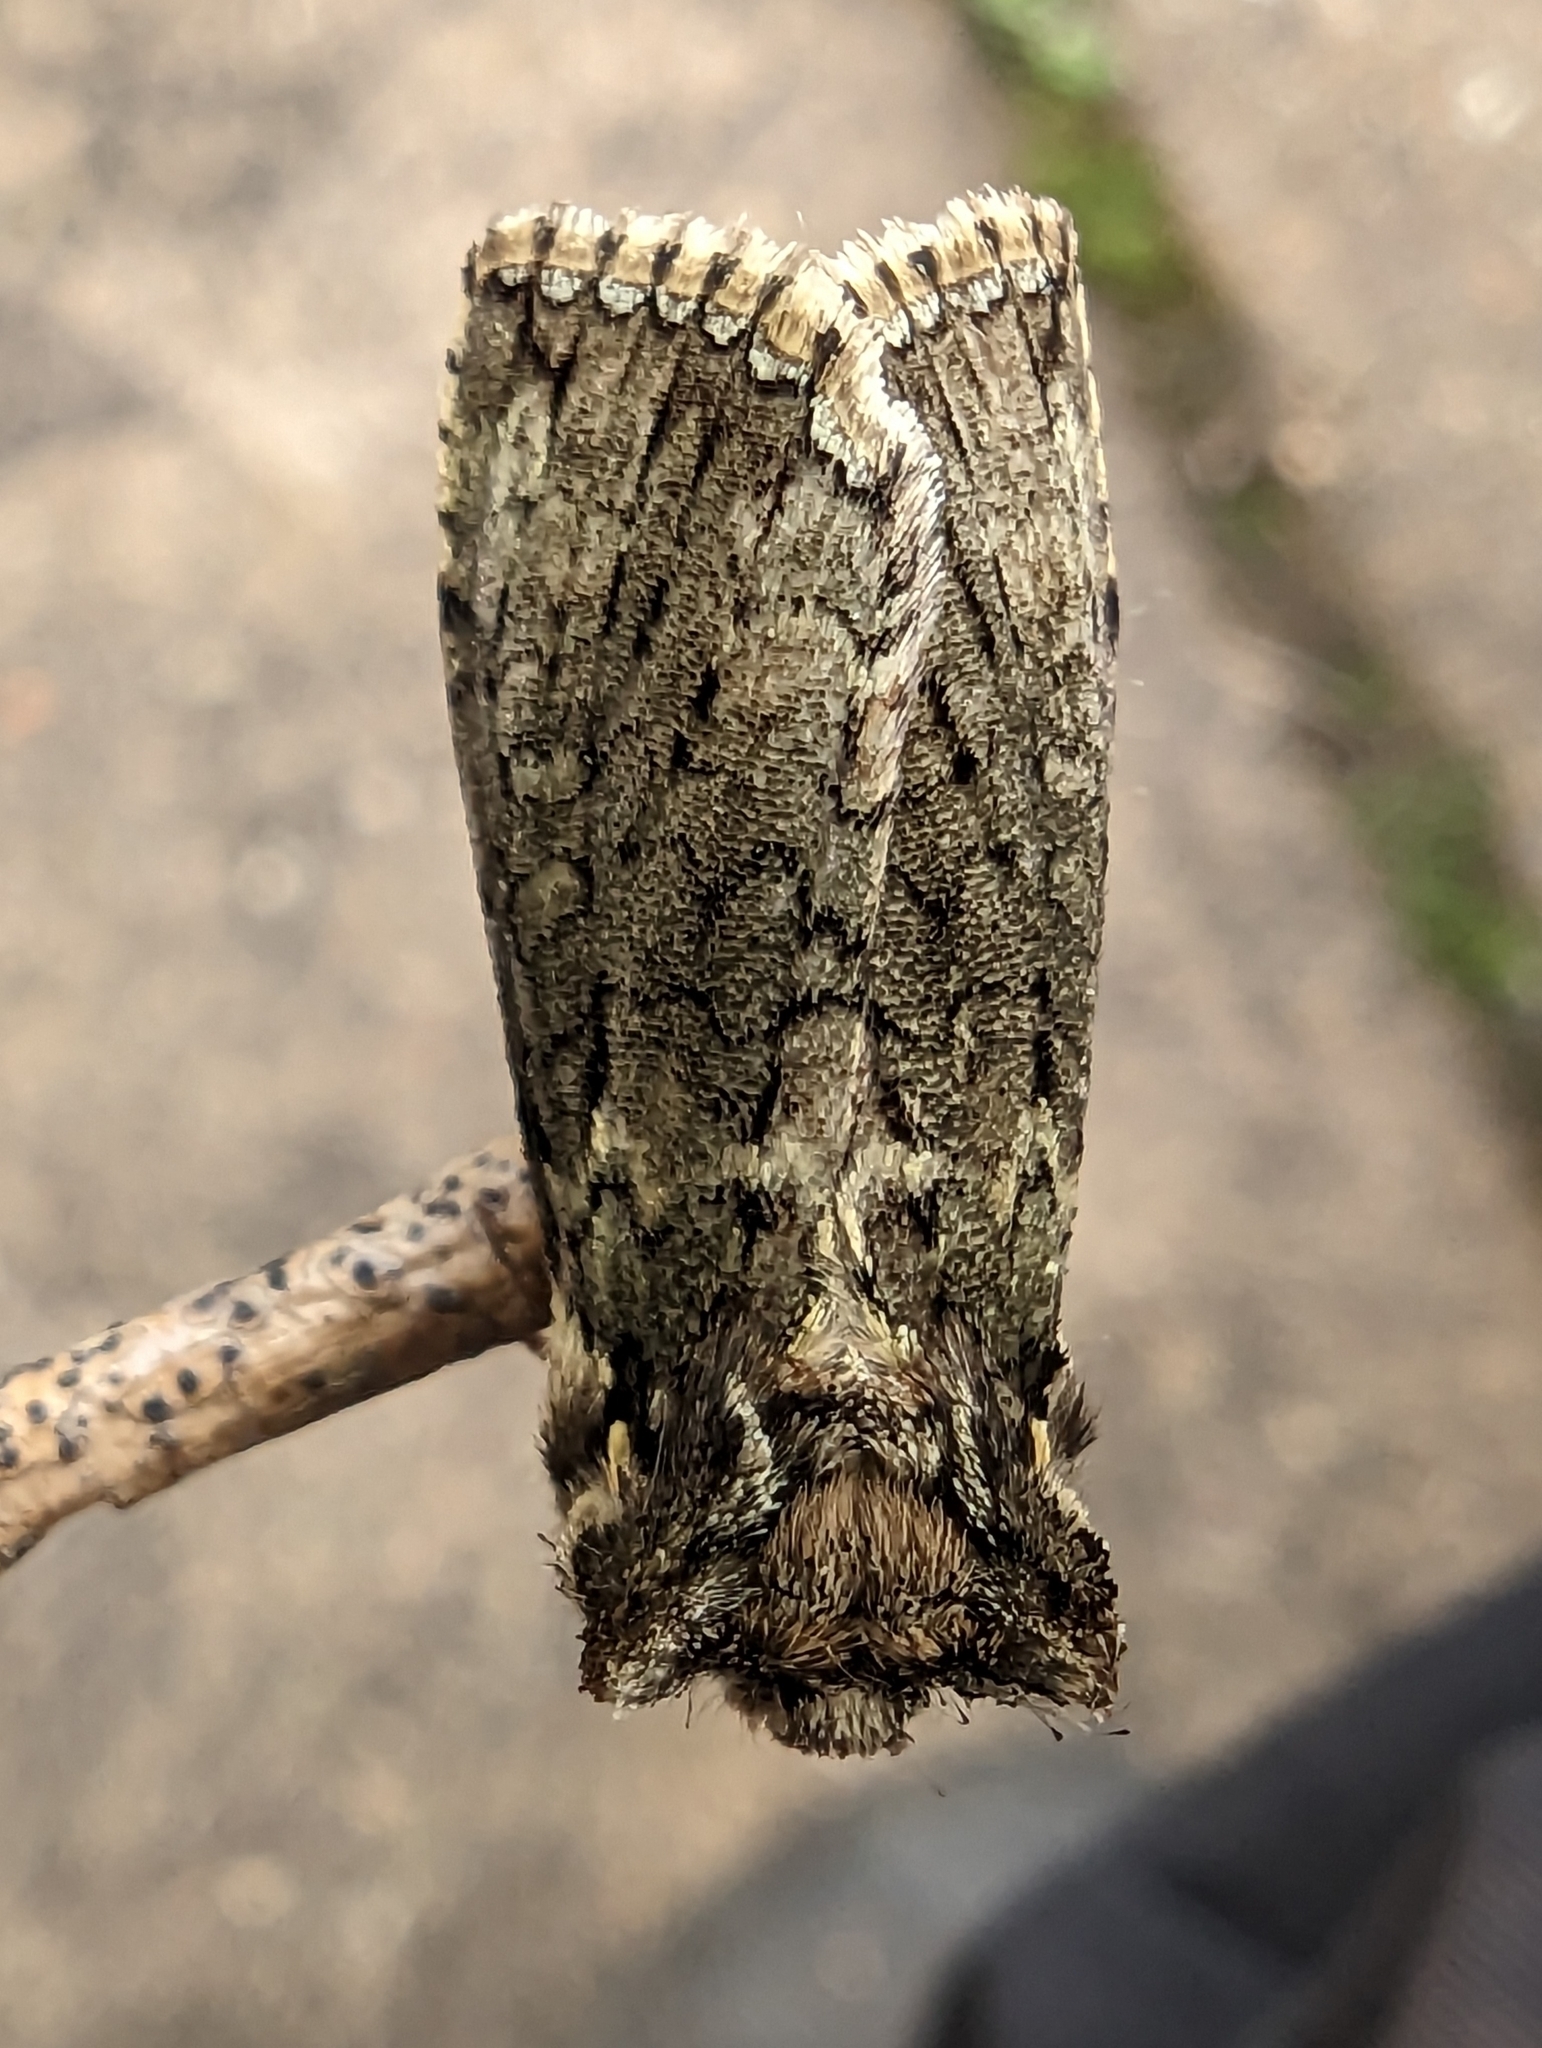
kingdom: Animalia
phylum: Arthropoda
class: Insecta
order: Lepidoptera
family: Drepanidae
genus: Polyploca
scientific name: Polyploca ridens
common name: Frosted green
